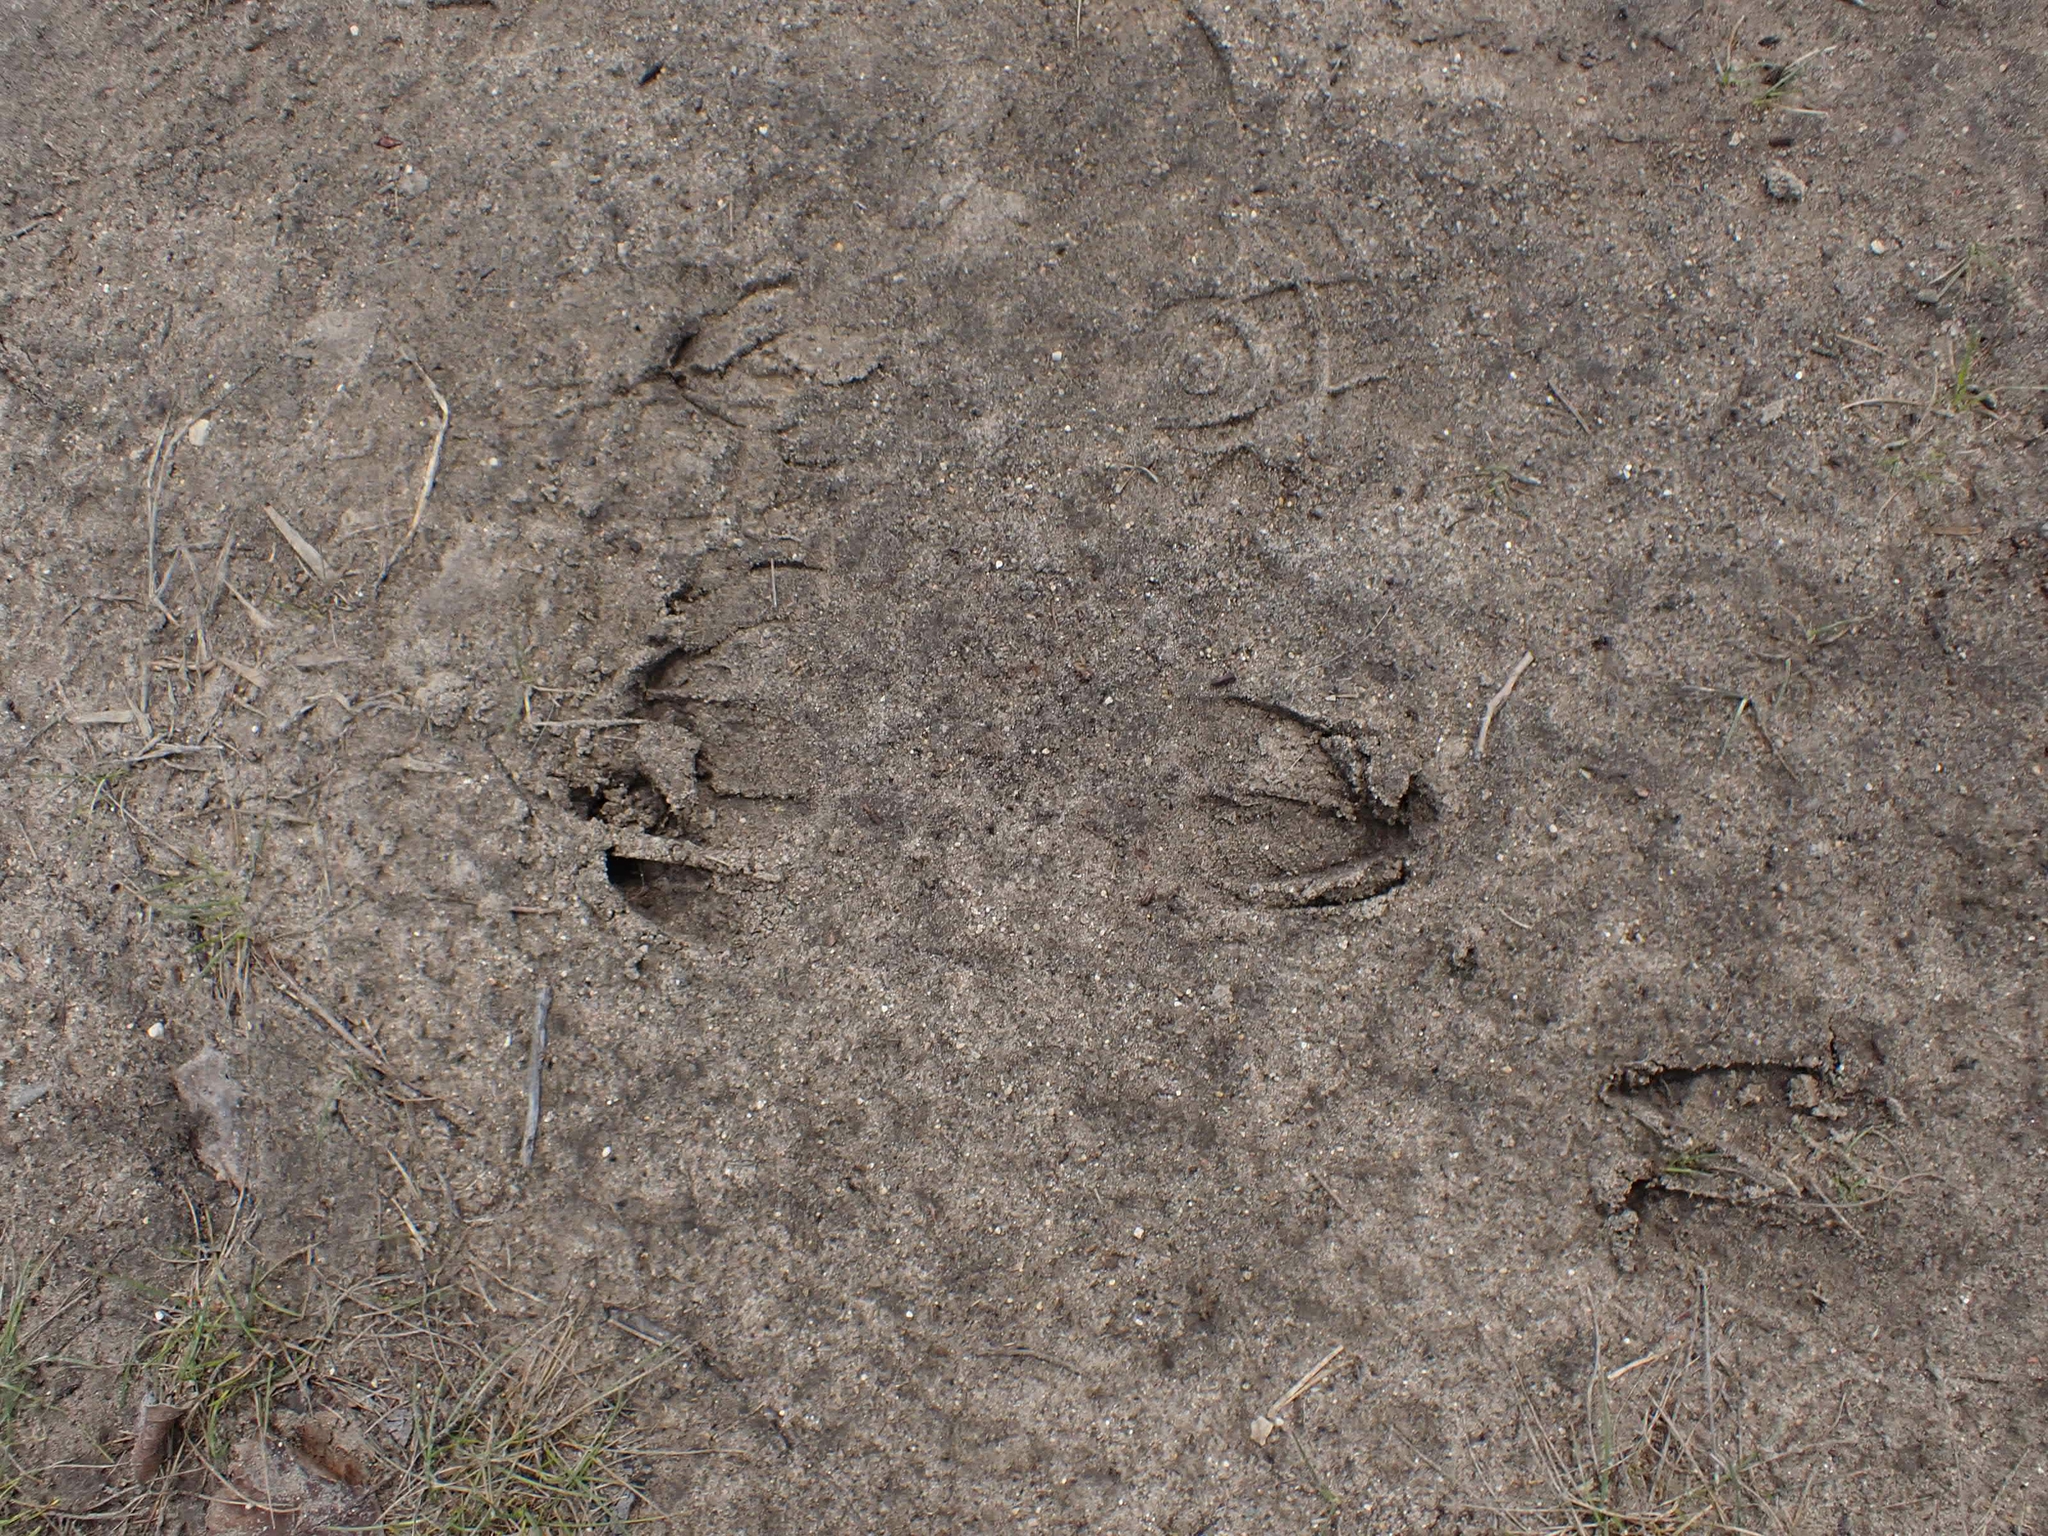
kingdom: Animalia
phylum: Chordata
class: Mammalia
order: Artiodactyla
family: Cervidae
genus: Odocoileus
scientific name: Odocoileus virginianus
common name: White-tailed deer
